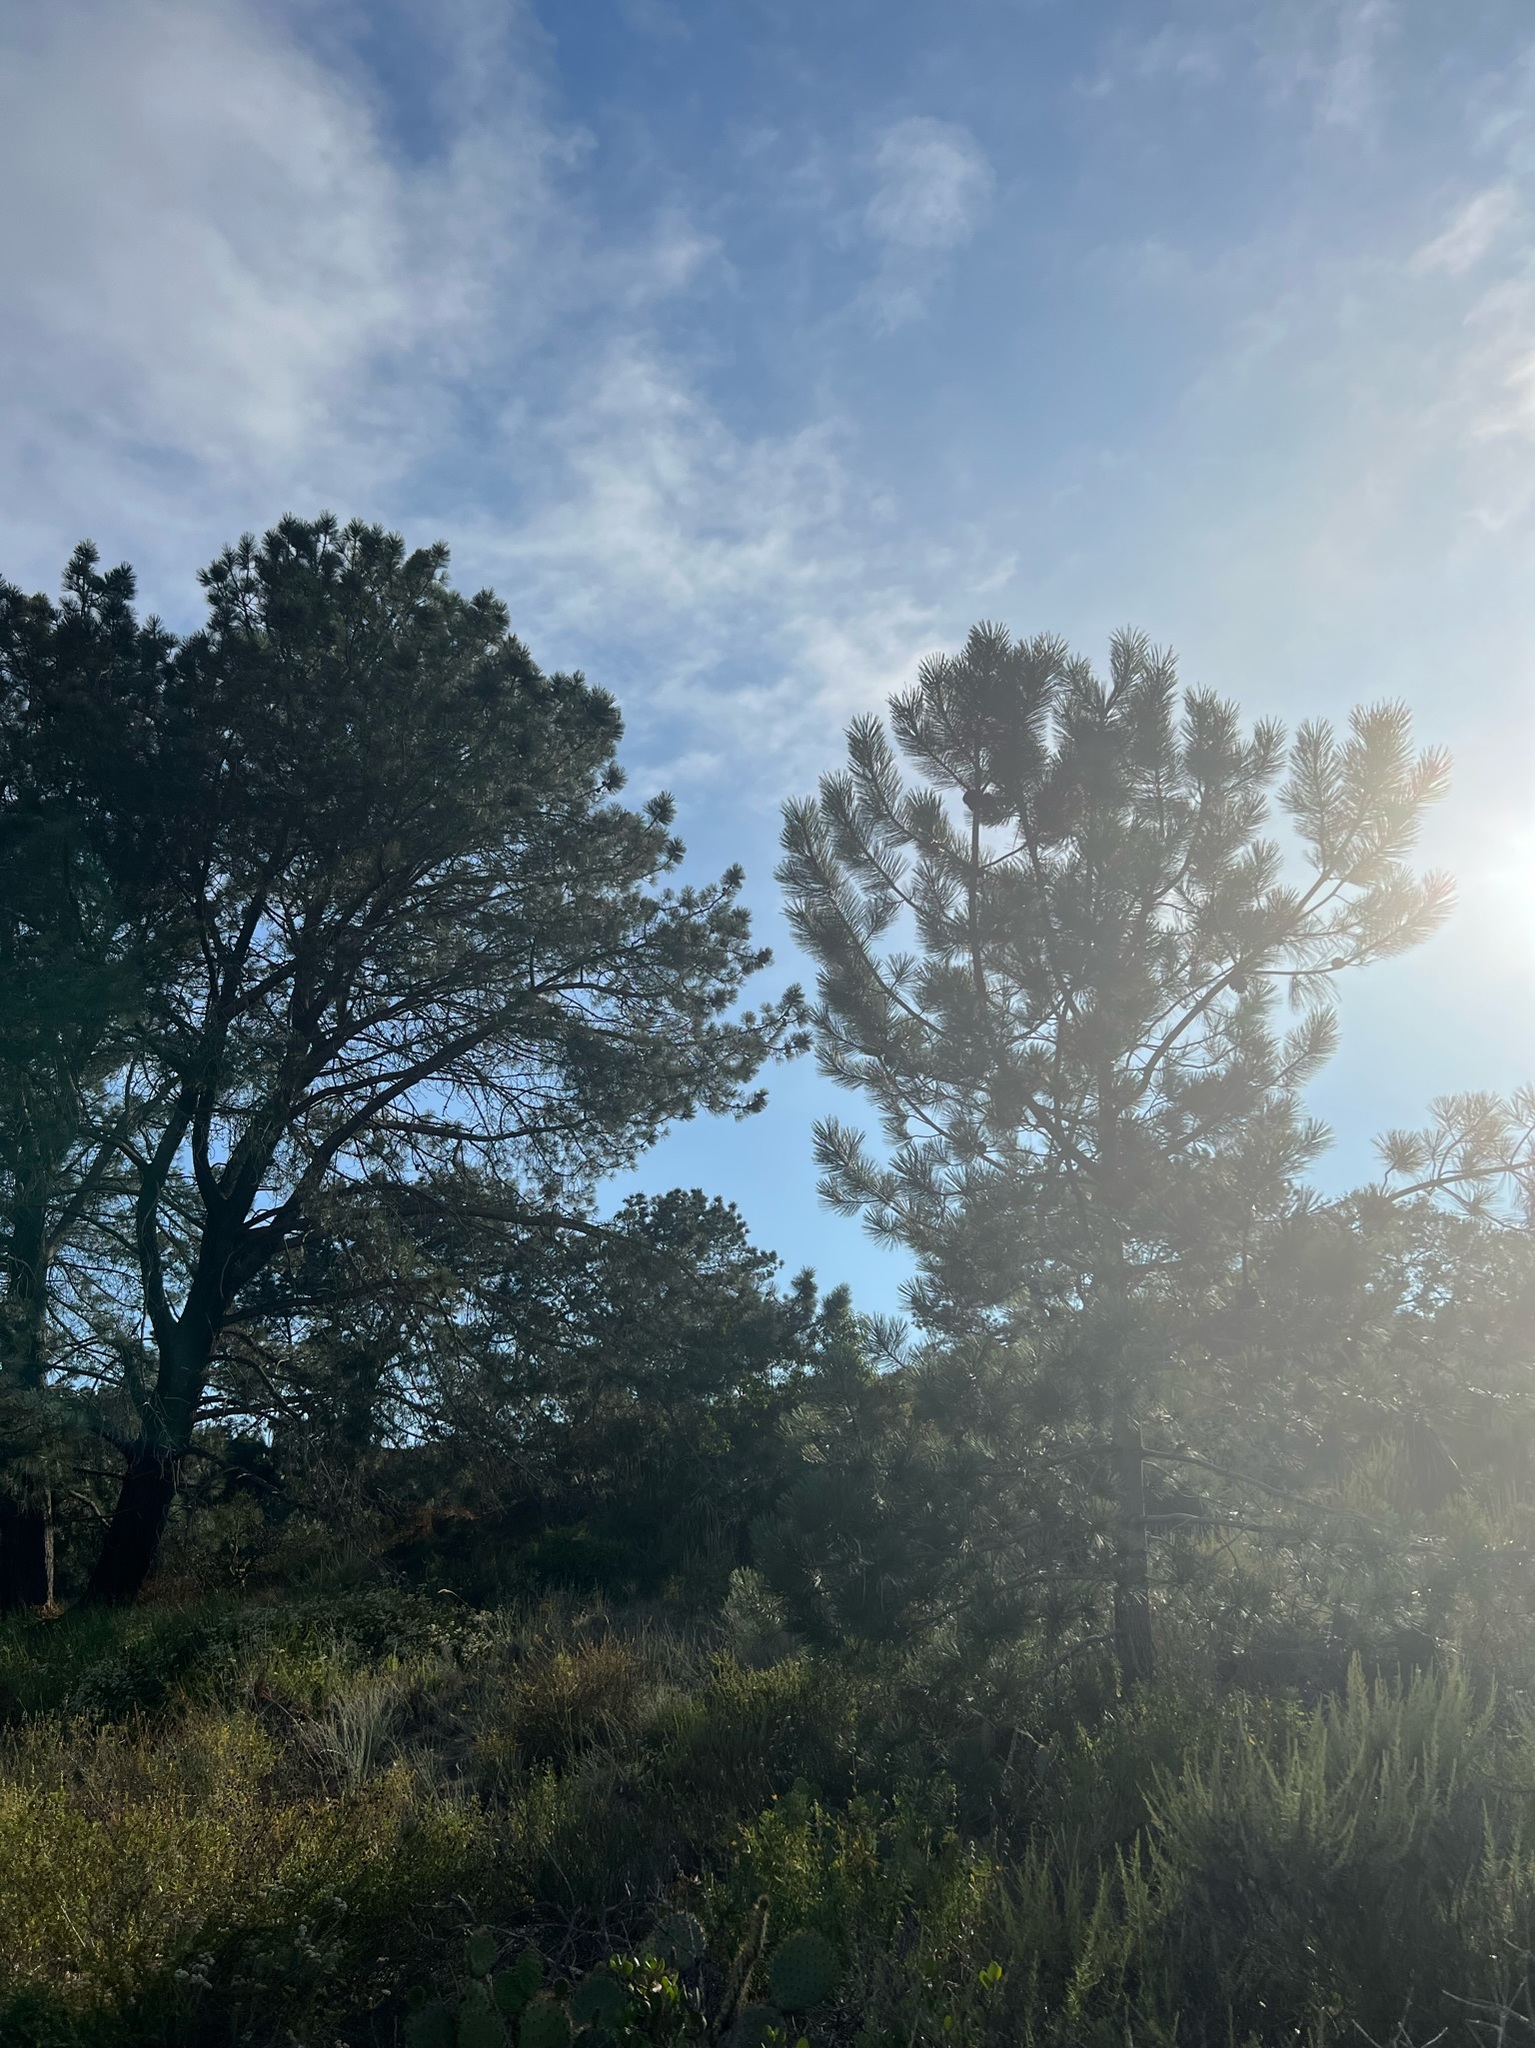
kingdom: Plantae
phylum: Tracheophyta
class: Pinopsida
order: Pinales
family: Pinaceae
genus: Pinus
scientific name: Pinus torreyana
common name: Torrey pine
